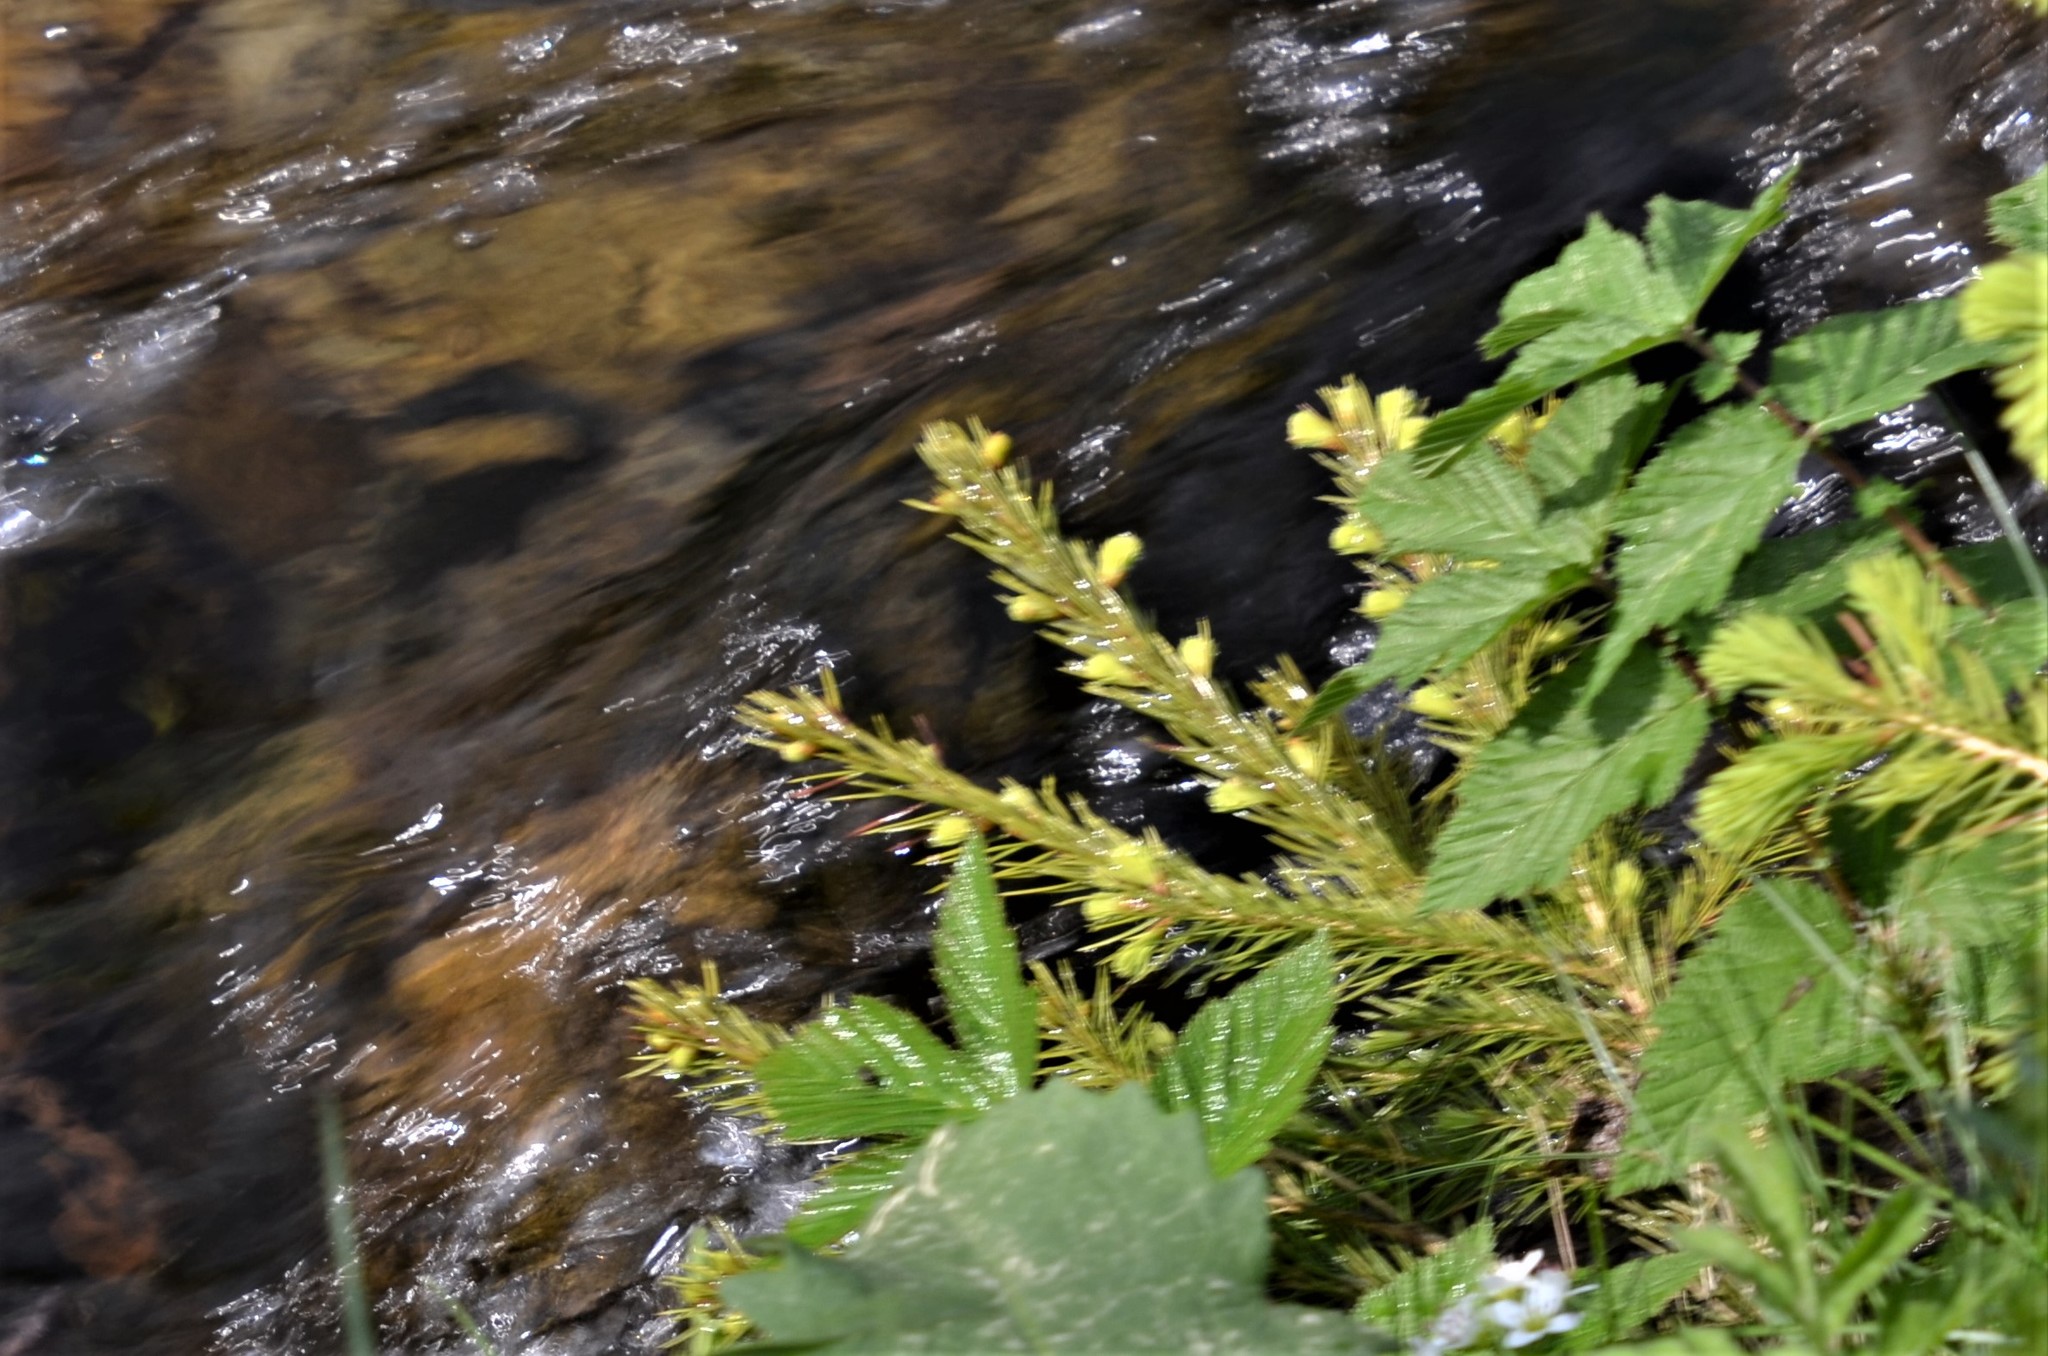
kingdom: Plantae
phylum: Tracheophyta
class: Pinopsida
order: Pinales
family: Pinaceae
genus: Picea
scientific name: Picea abies
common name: Norway spruce
